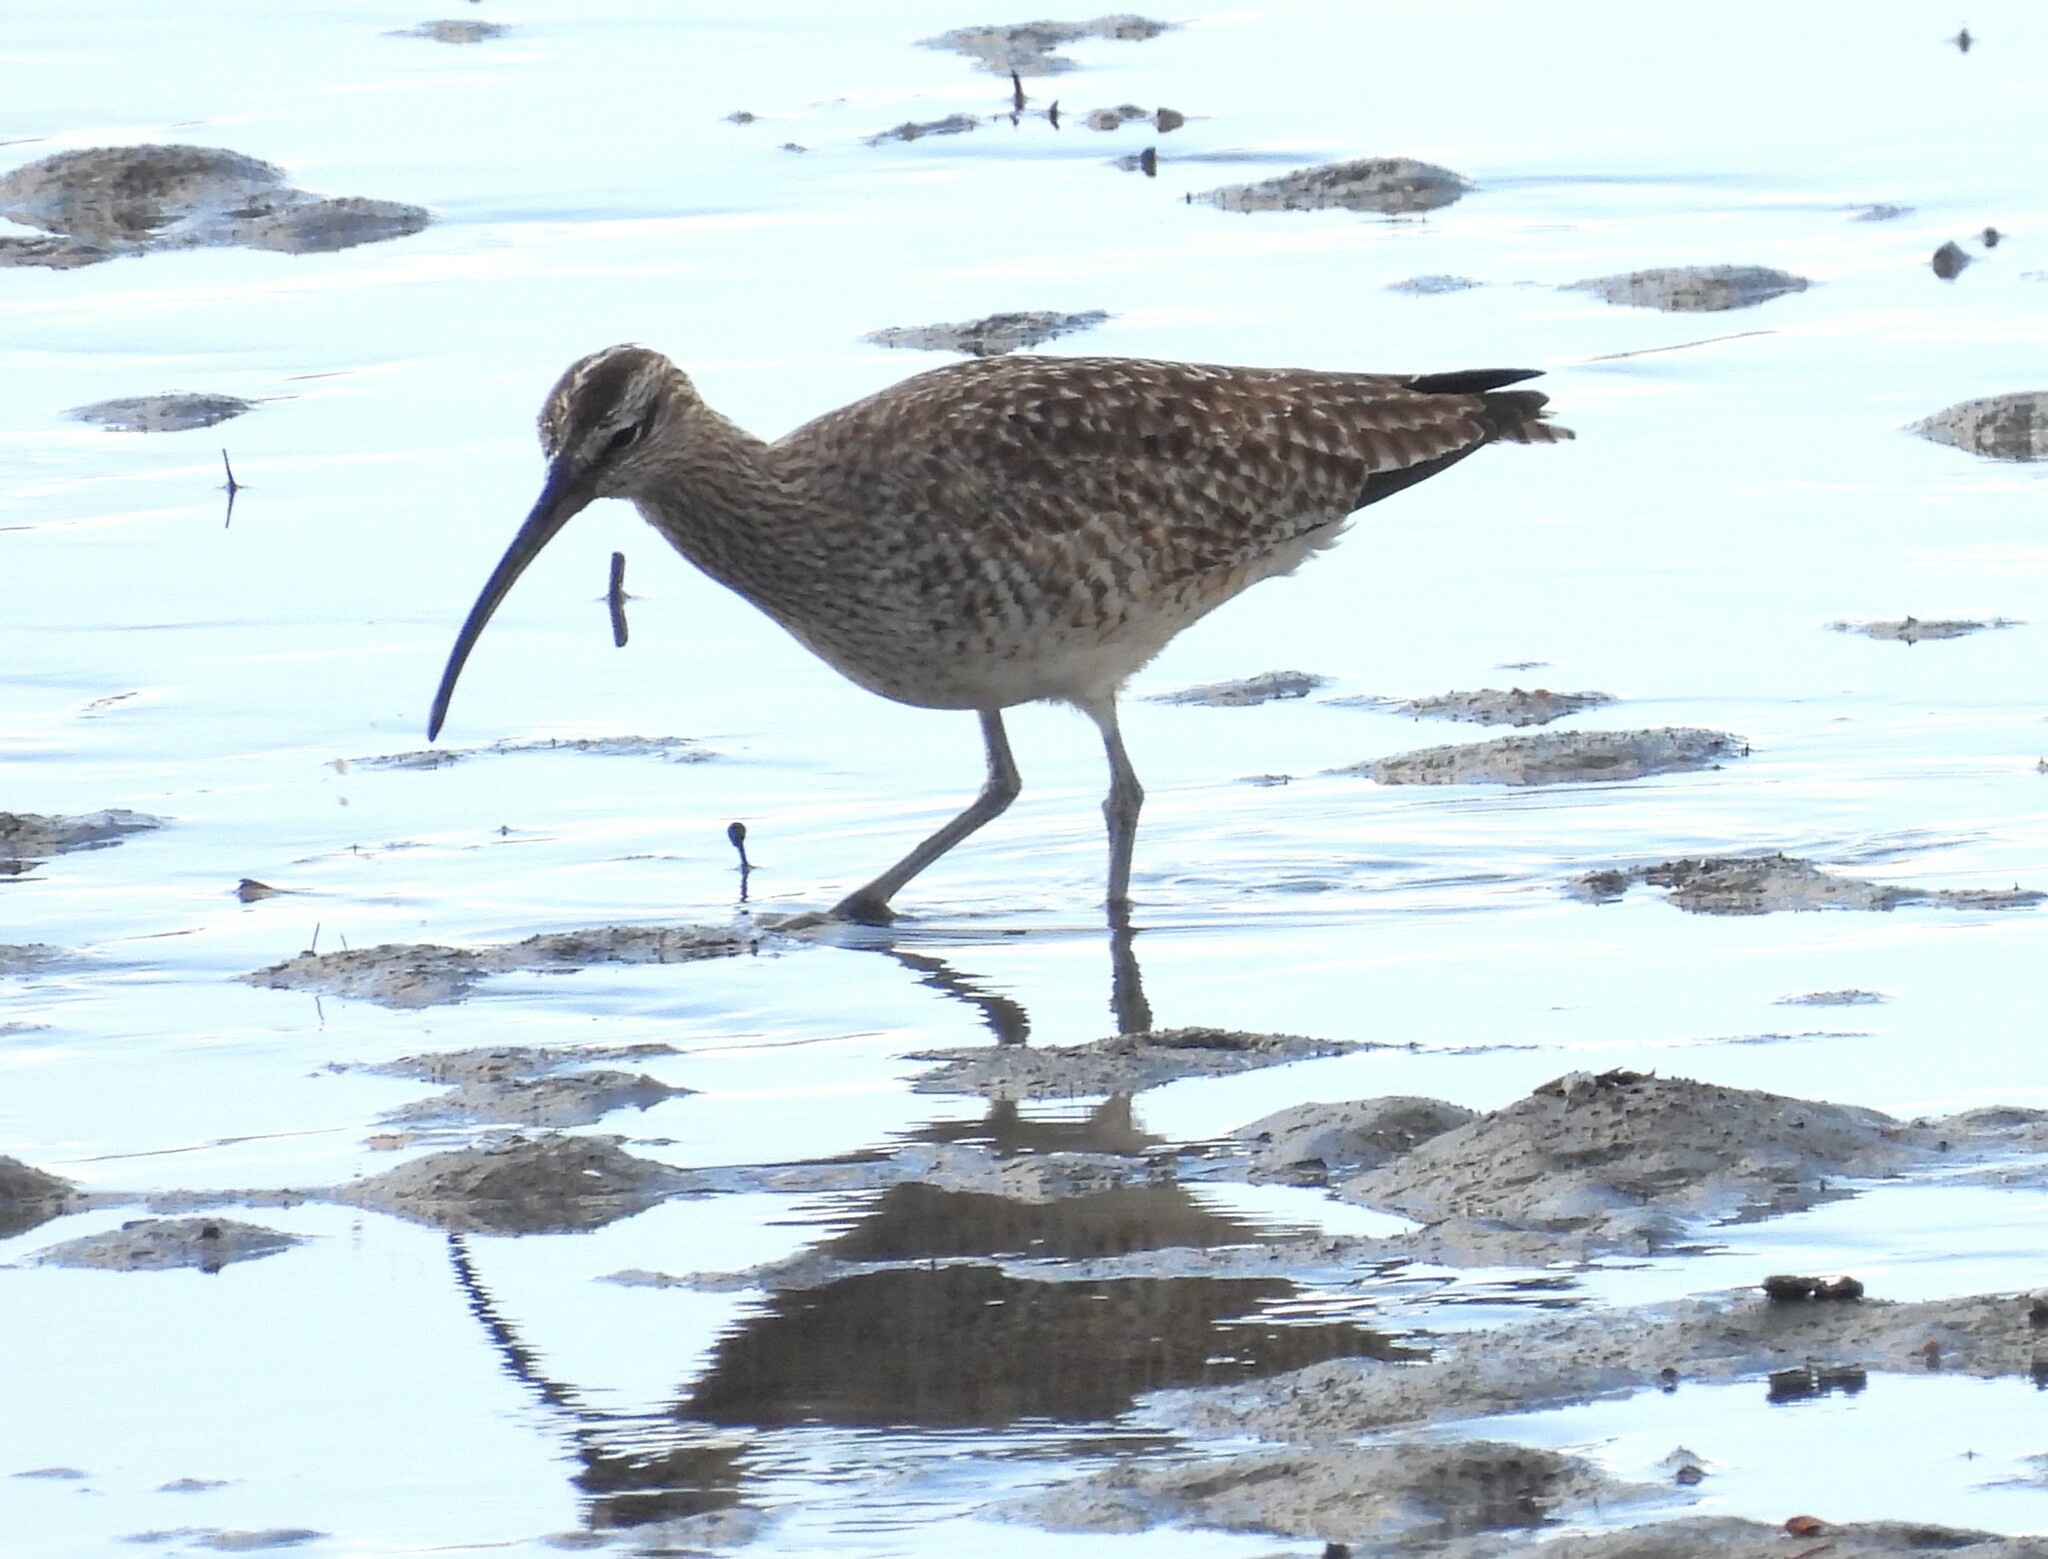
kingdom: Animalia
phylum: Chordata
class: Aves
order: Charadriiformes
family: Scolopacidae
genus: Numenius
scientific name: Numenius phaeopus
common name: Whimbrel
